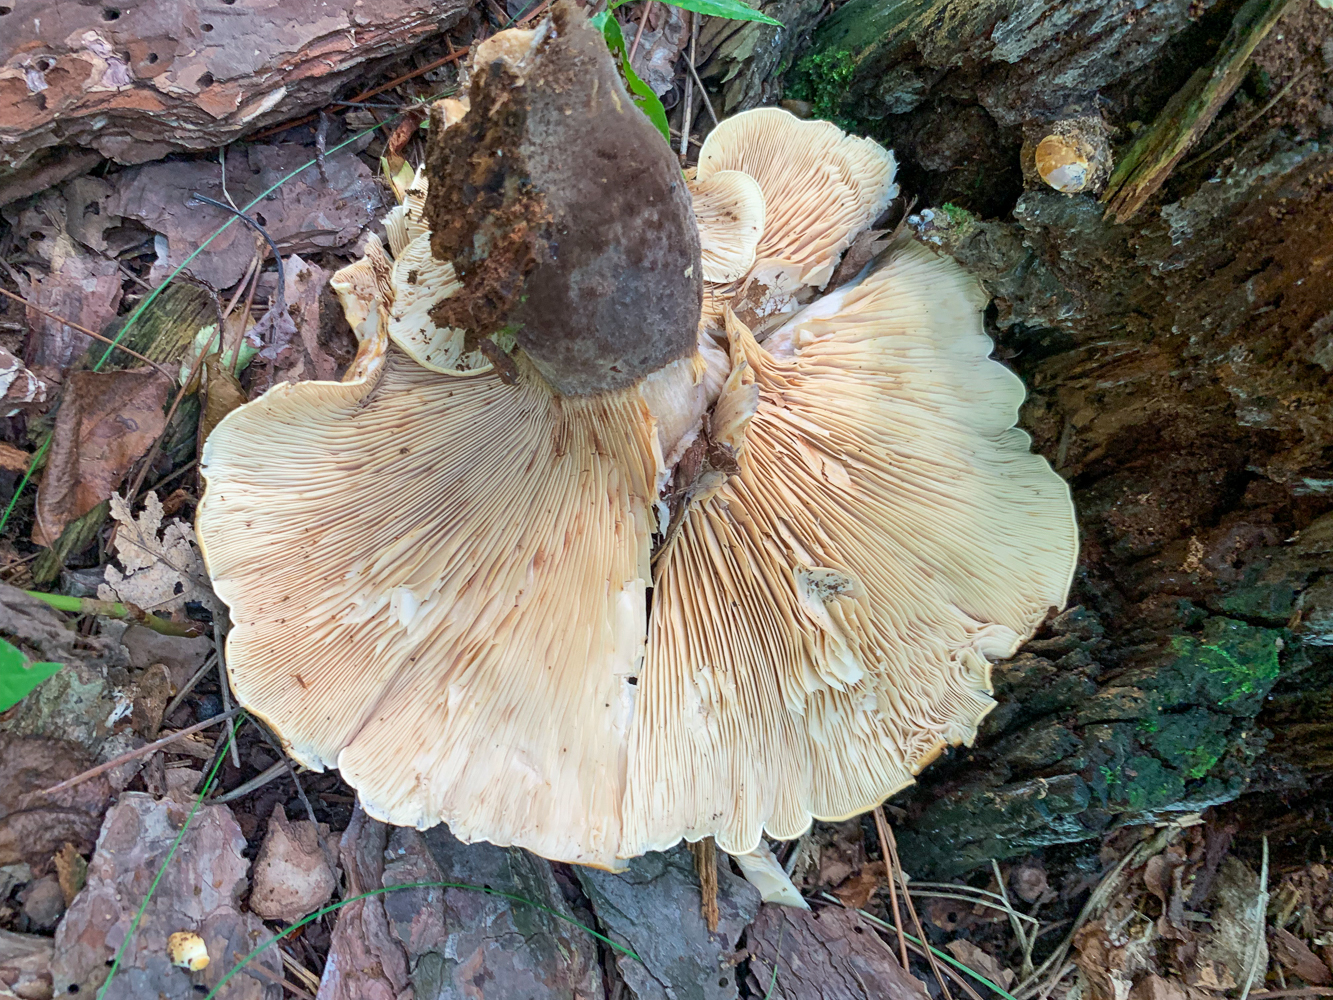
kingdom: Fungi
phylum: Basidiomycota
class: Agaricomycetes
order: Boletales
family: Tapinellaceae
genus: Tapinella
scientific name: Tapinella atrotomentosa
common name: Velvet rollrim
